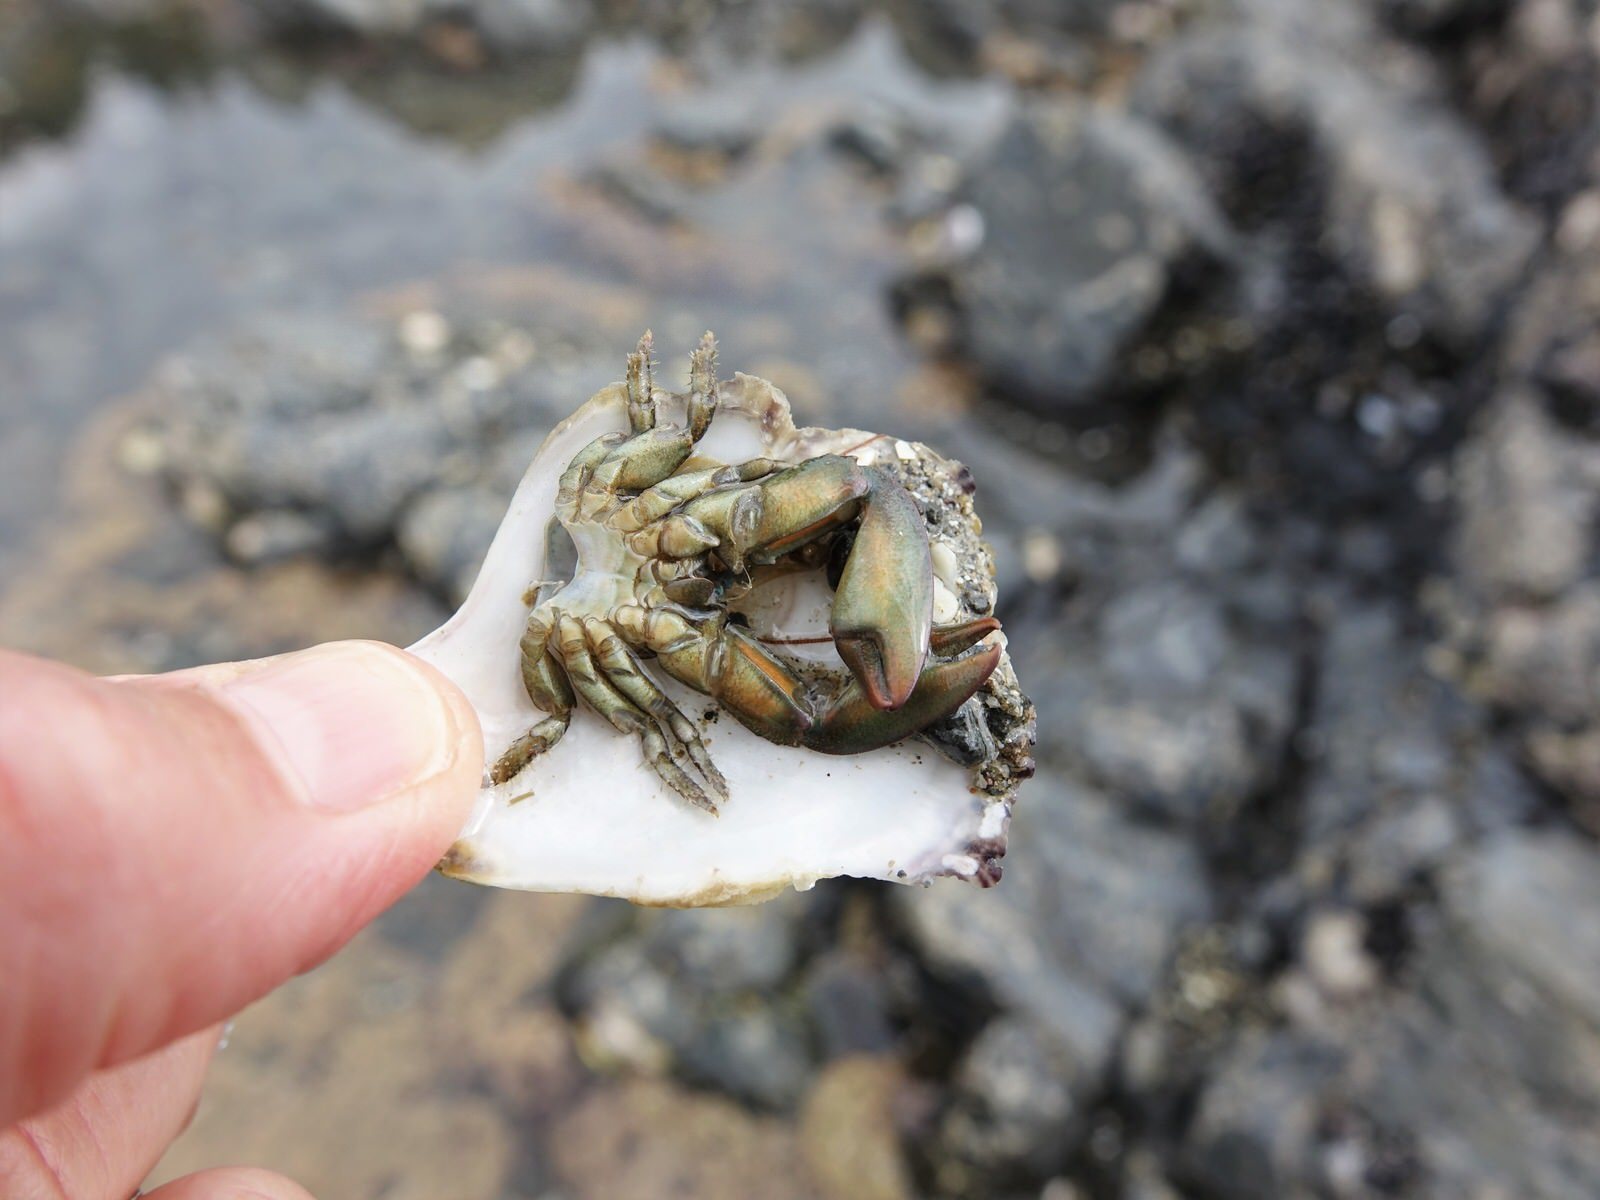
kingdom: Animalia
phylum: Arthropoda
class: Malacostraca
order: Decapoda
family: Porcellanidae
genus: Petrolisthes
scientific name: Petrolisthes elongatus
